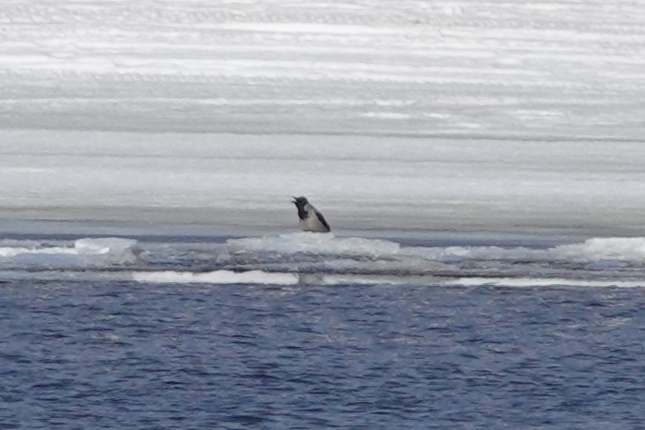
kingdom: Animalia
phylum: Chordata
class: Aves
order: Passeriformes
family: Corvidae
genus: Corvus
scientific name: Corvus cornix
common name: Hooded crow
